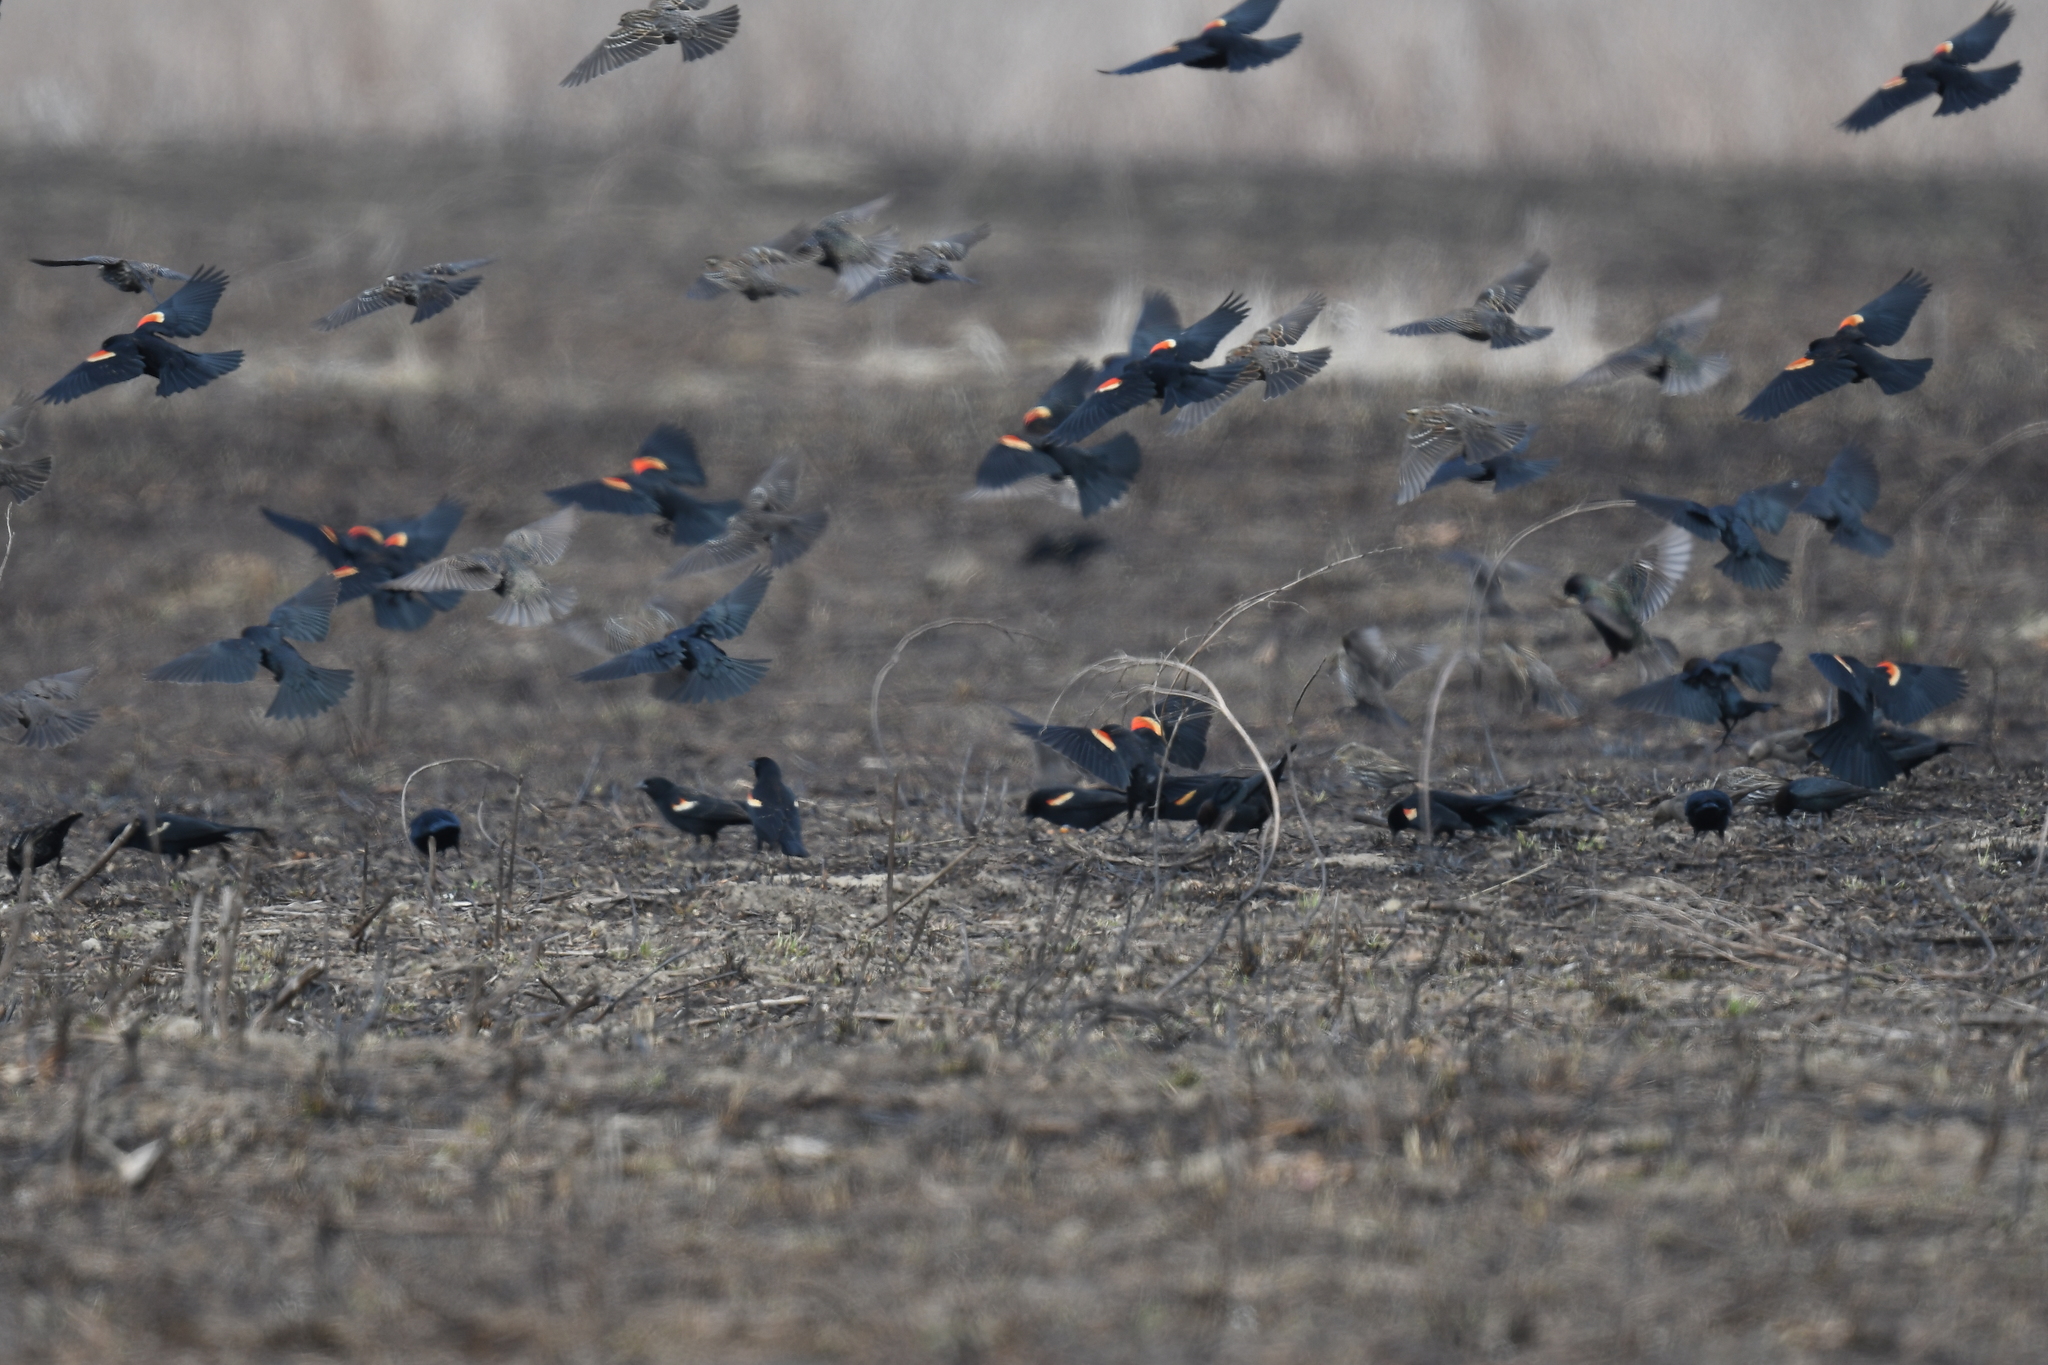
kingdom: Animalia
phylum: Chordata
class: Aves
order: Passeriformes
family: Icteridae
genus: Agelaius
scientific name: Agelaius phoeniceus
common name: Red-winged blackbird
